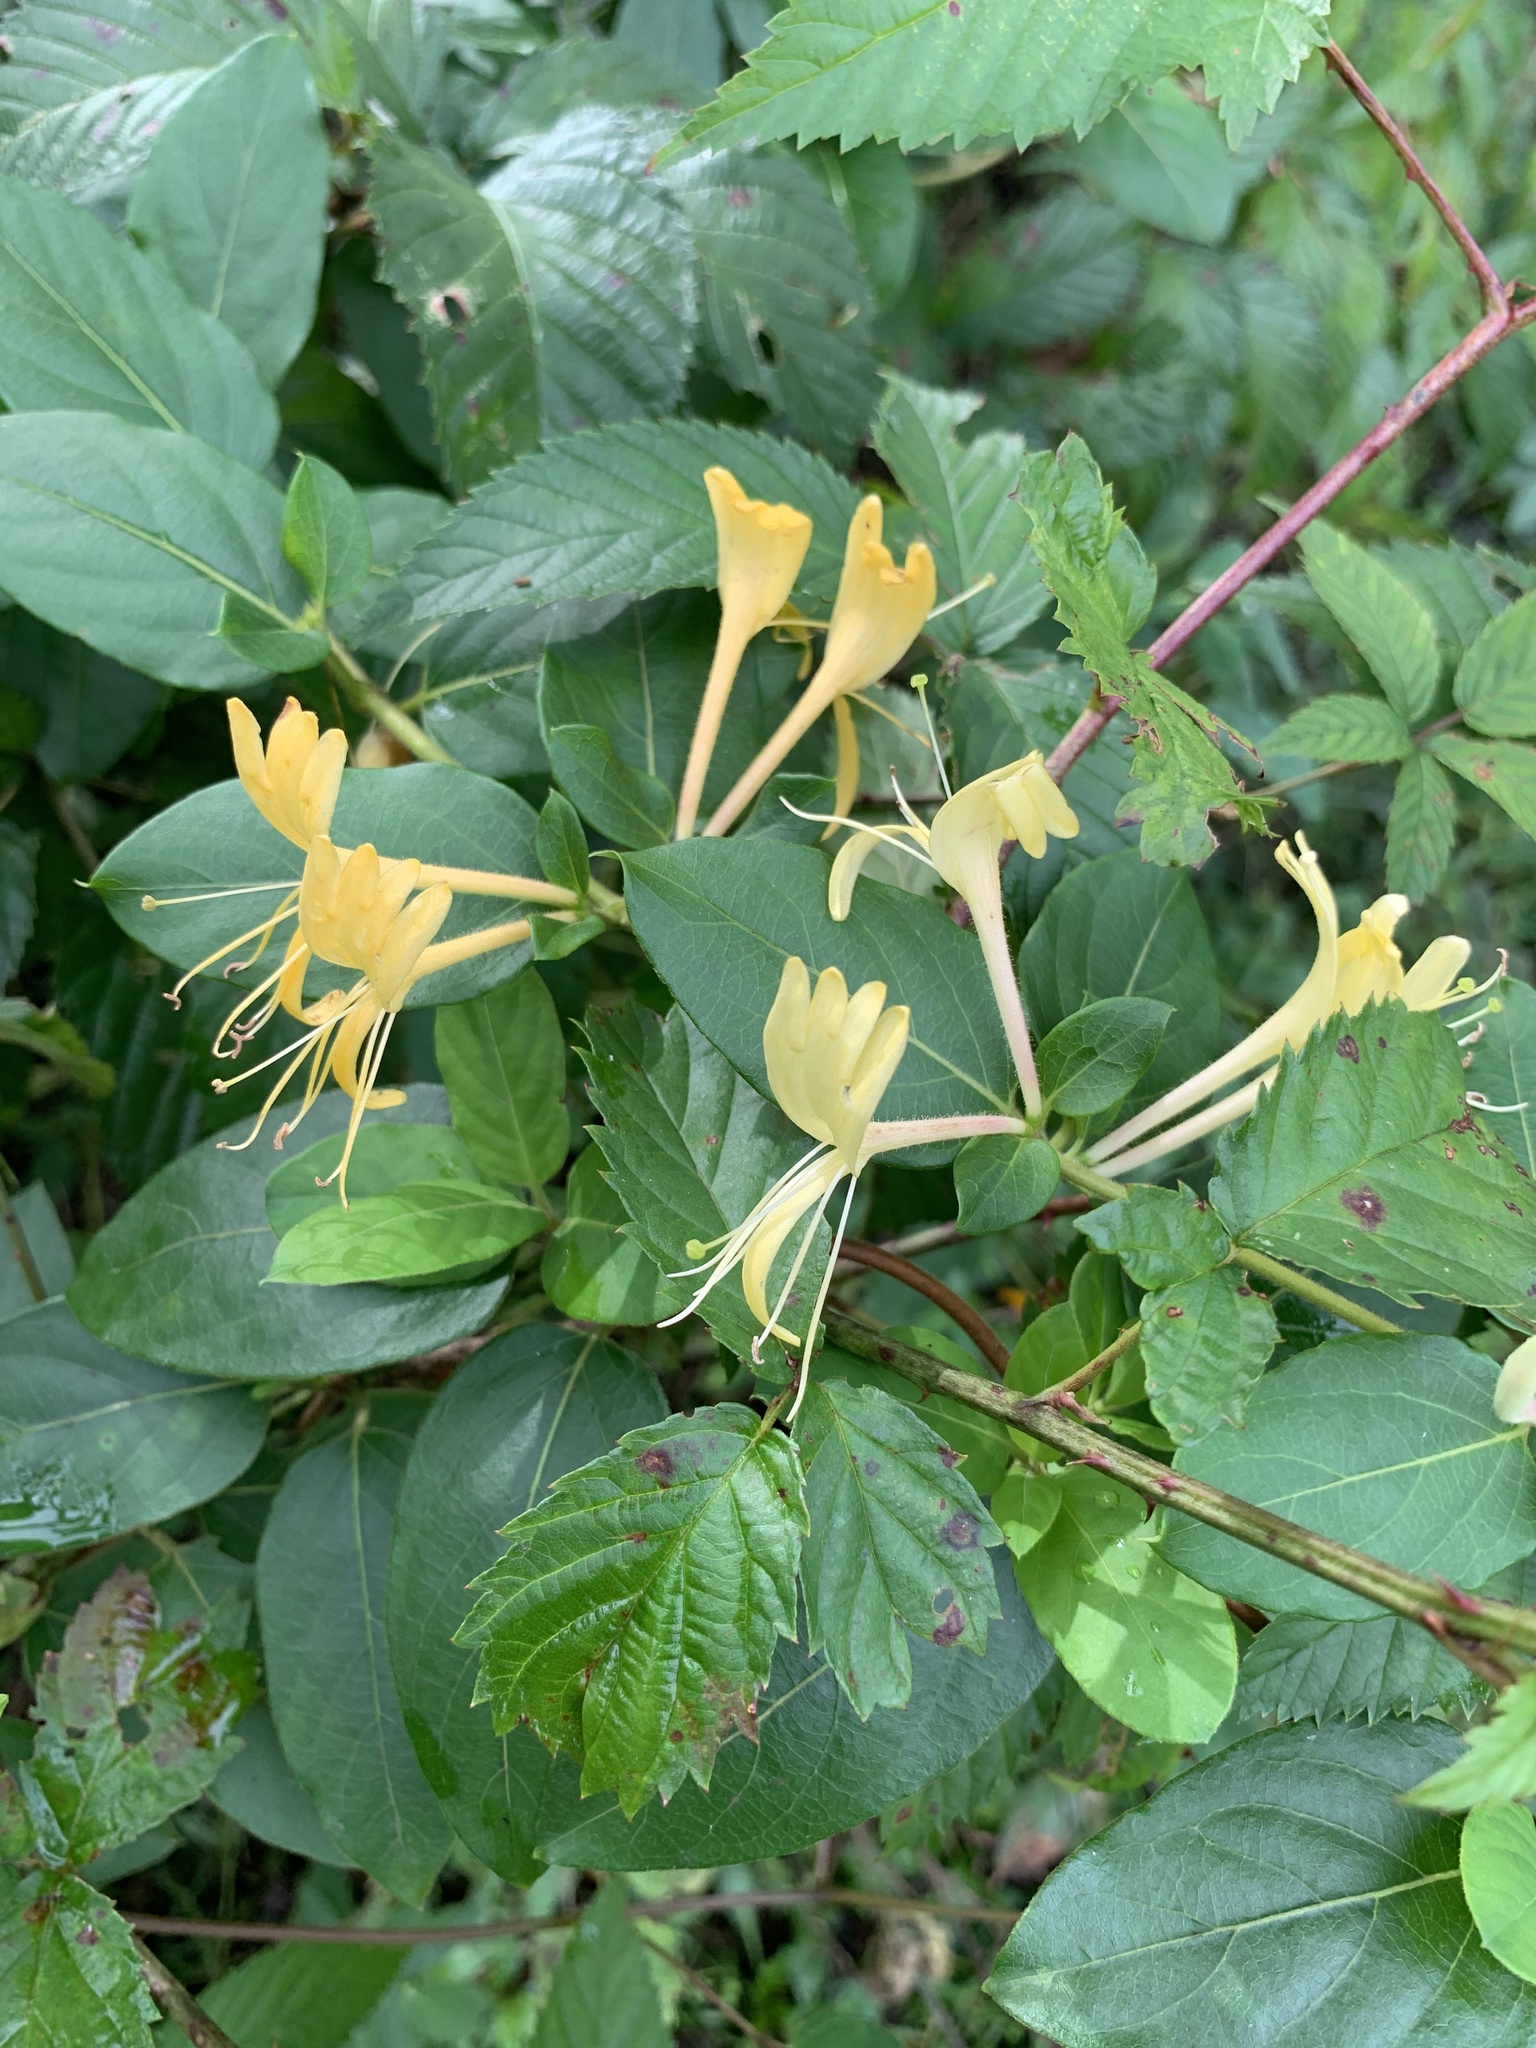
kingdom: Plantae
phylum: Tracheophyta
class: Magnoliopsida
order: Dipsacales
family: Caprifoliaceae
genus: Lonicera
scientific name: Lonicera japonica
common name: Japanese honeysuckle
